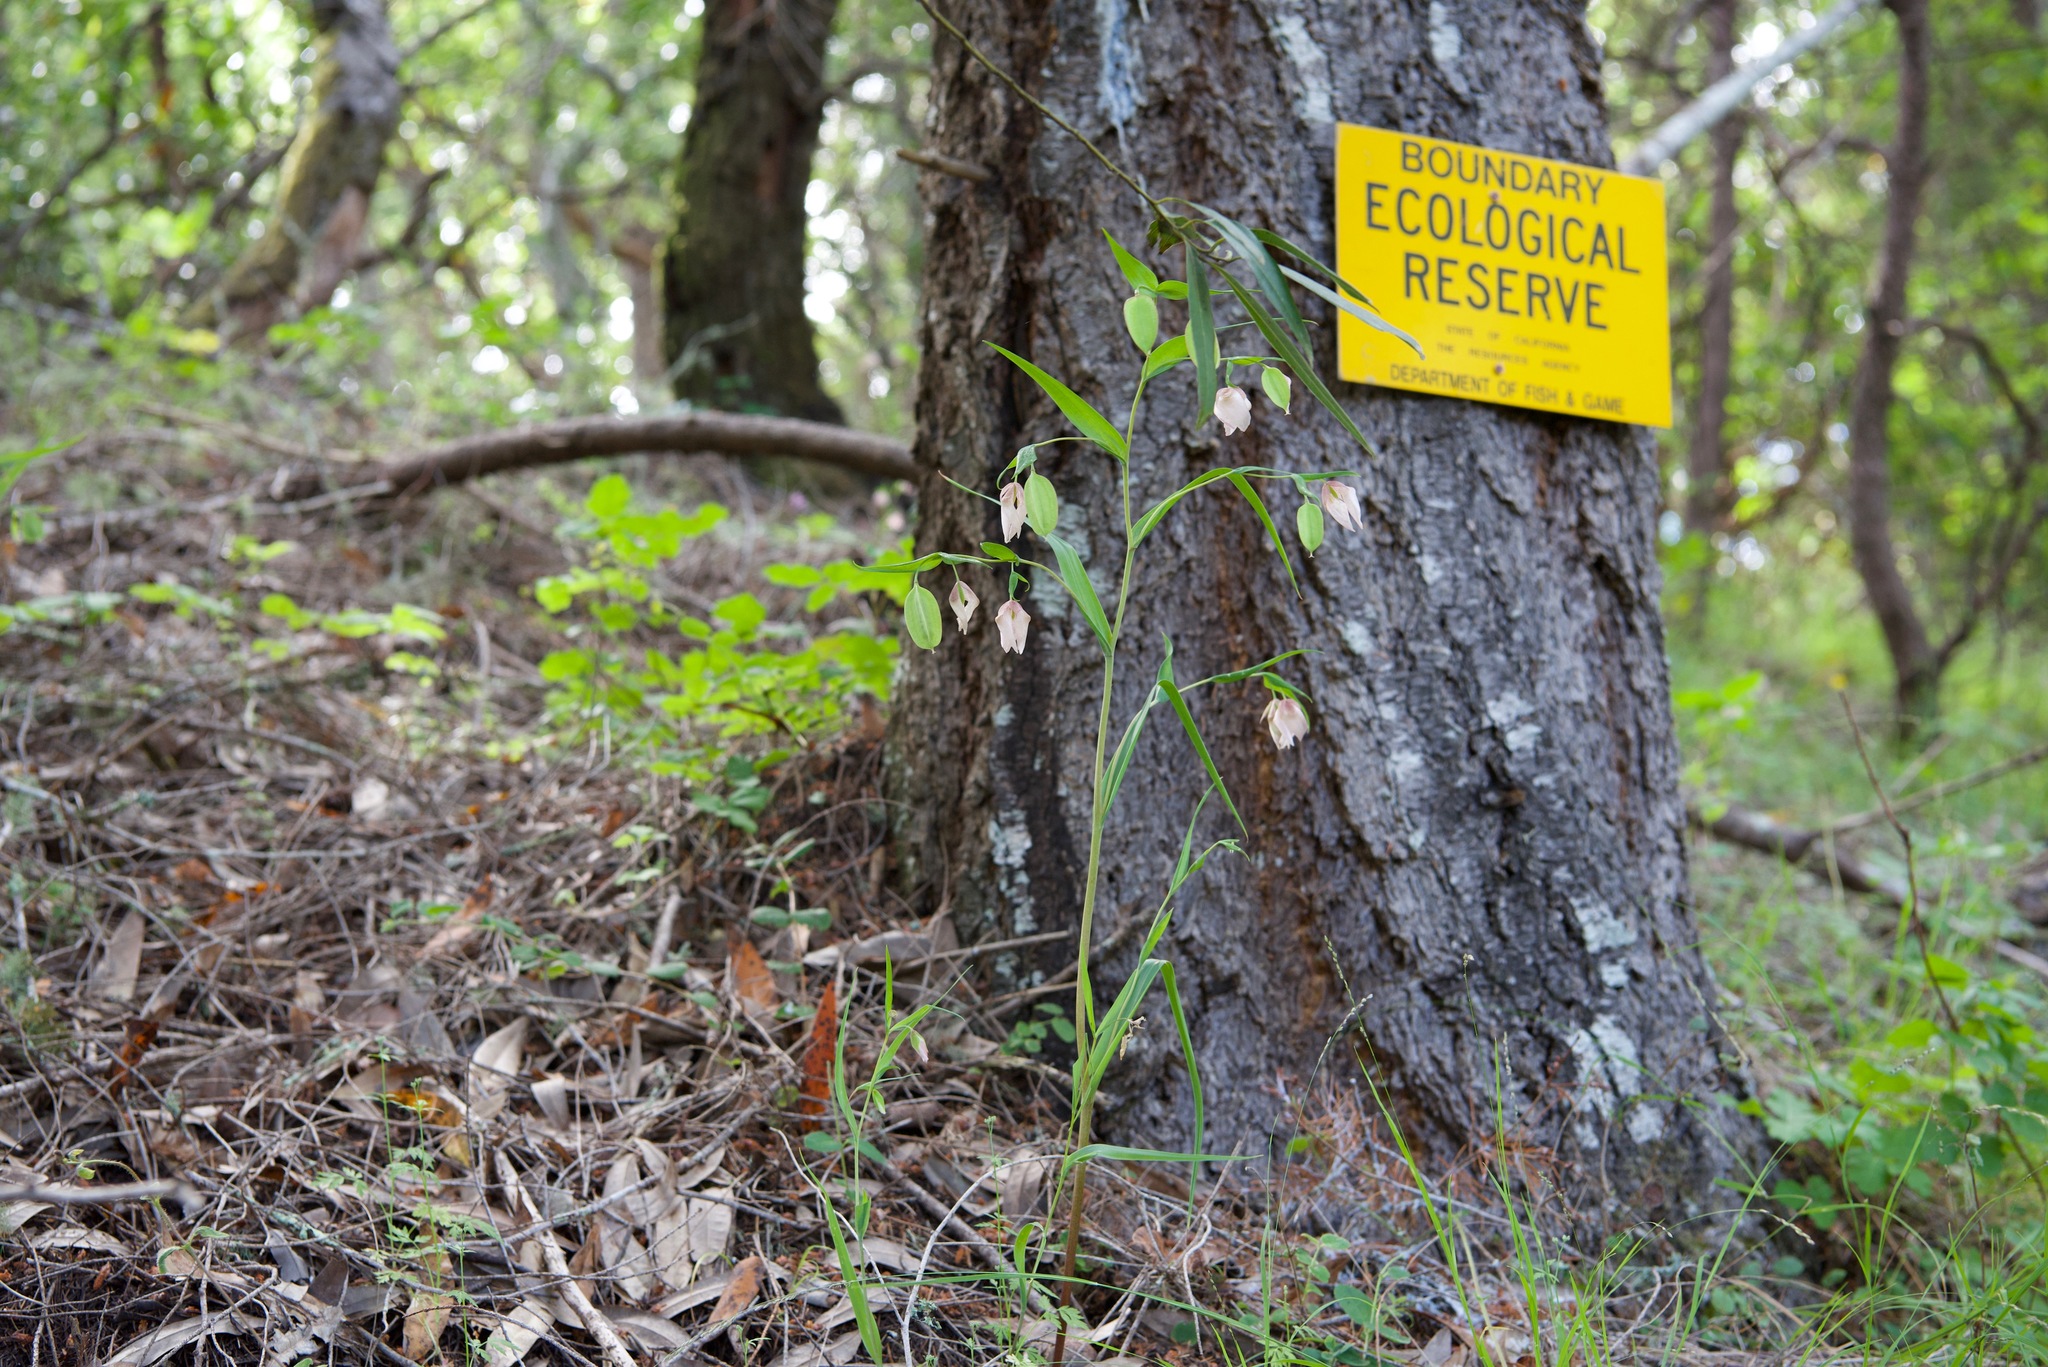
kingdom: Plantae
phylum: Tracheophyta
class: Liliopsida
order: Liliales
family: Liliaceae
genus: Calochortus
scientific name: Calochortus albus
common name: Fairy-lantern
